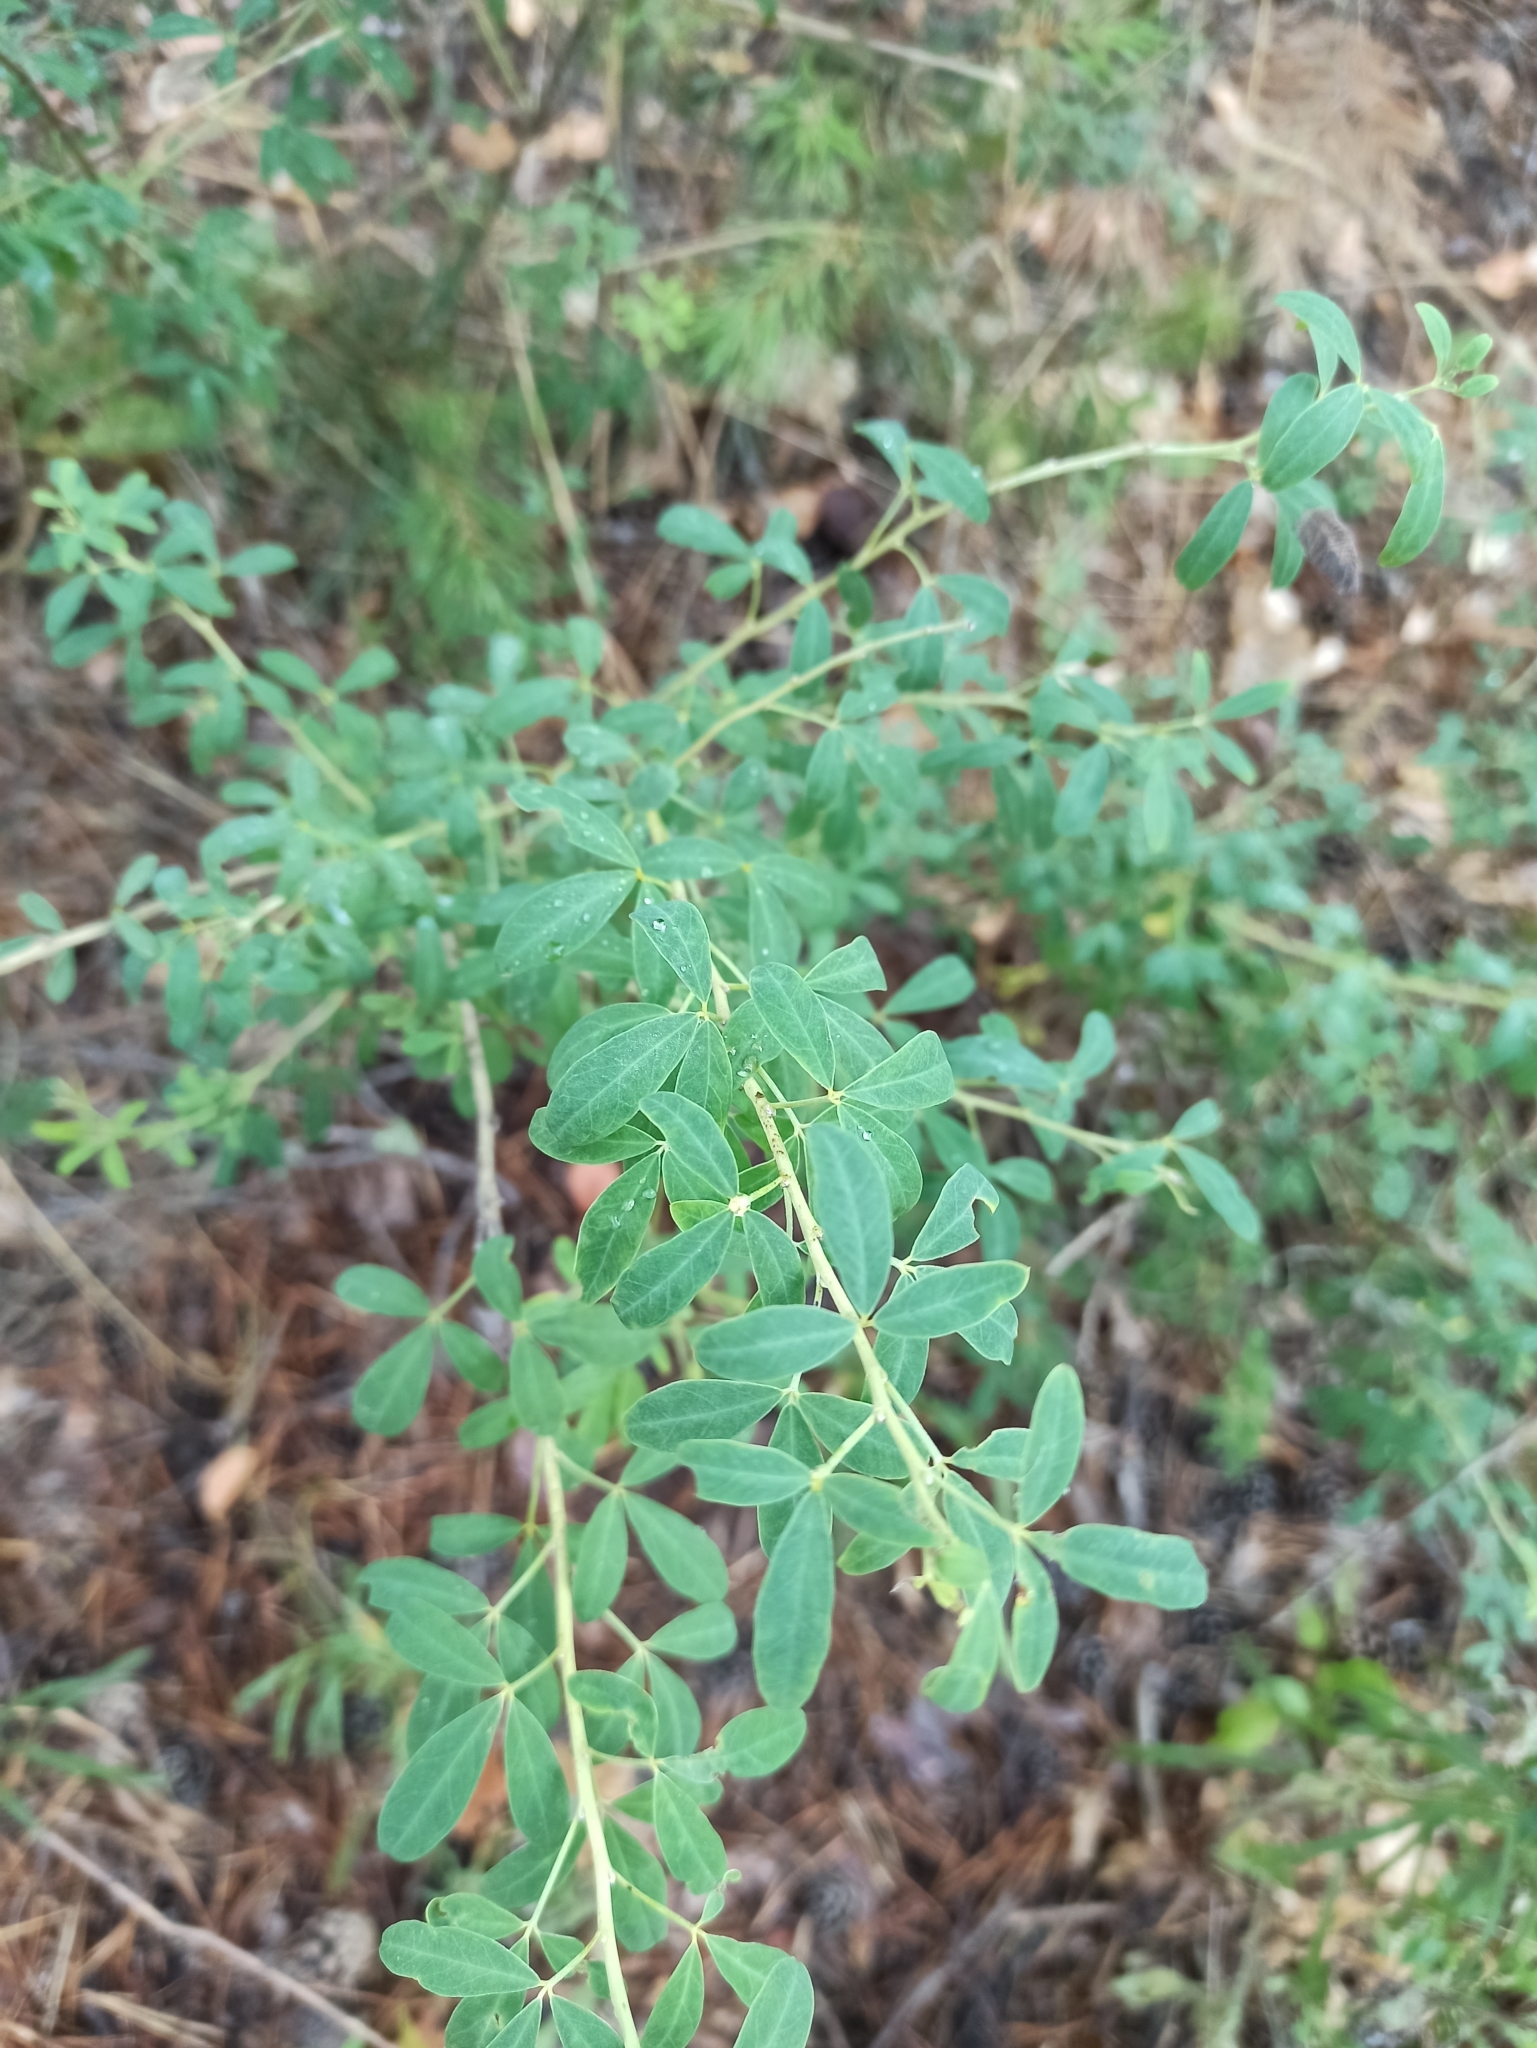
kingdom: Plantae
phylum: Tracheophyta
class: Magnoliopsida
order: Fabales
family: Fabaceae
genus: Chamaecytisus
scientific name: Chamaecytisus ruthenicus
